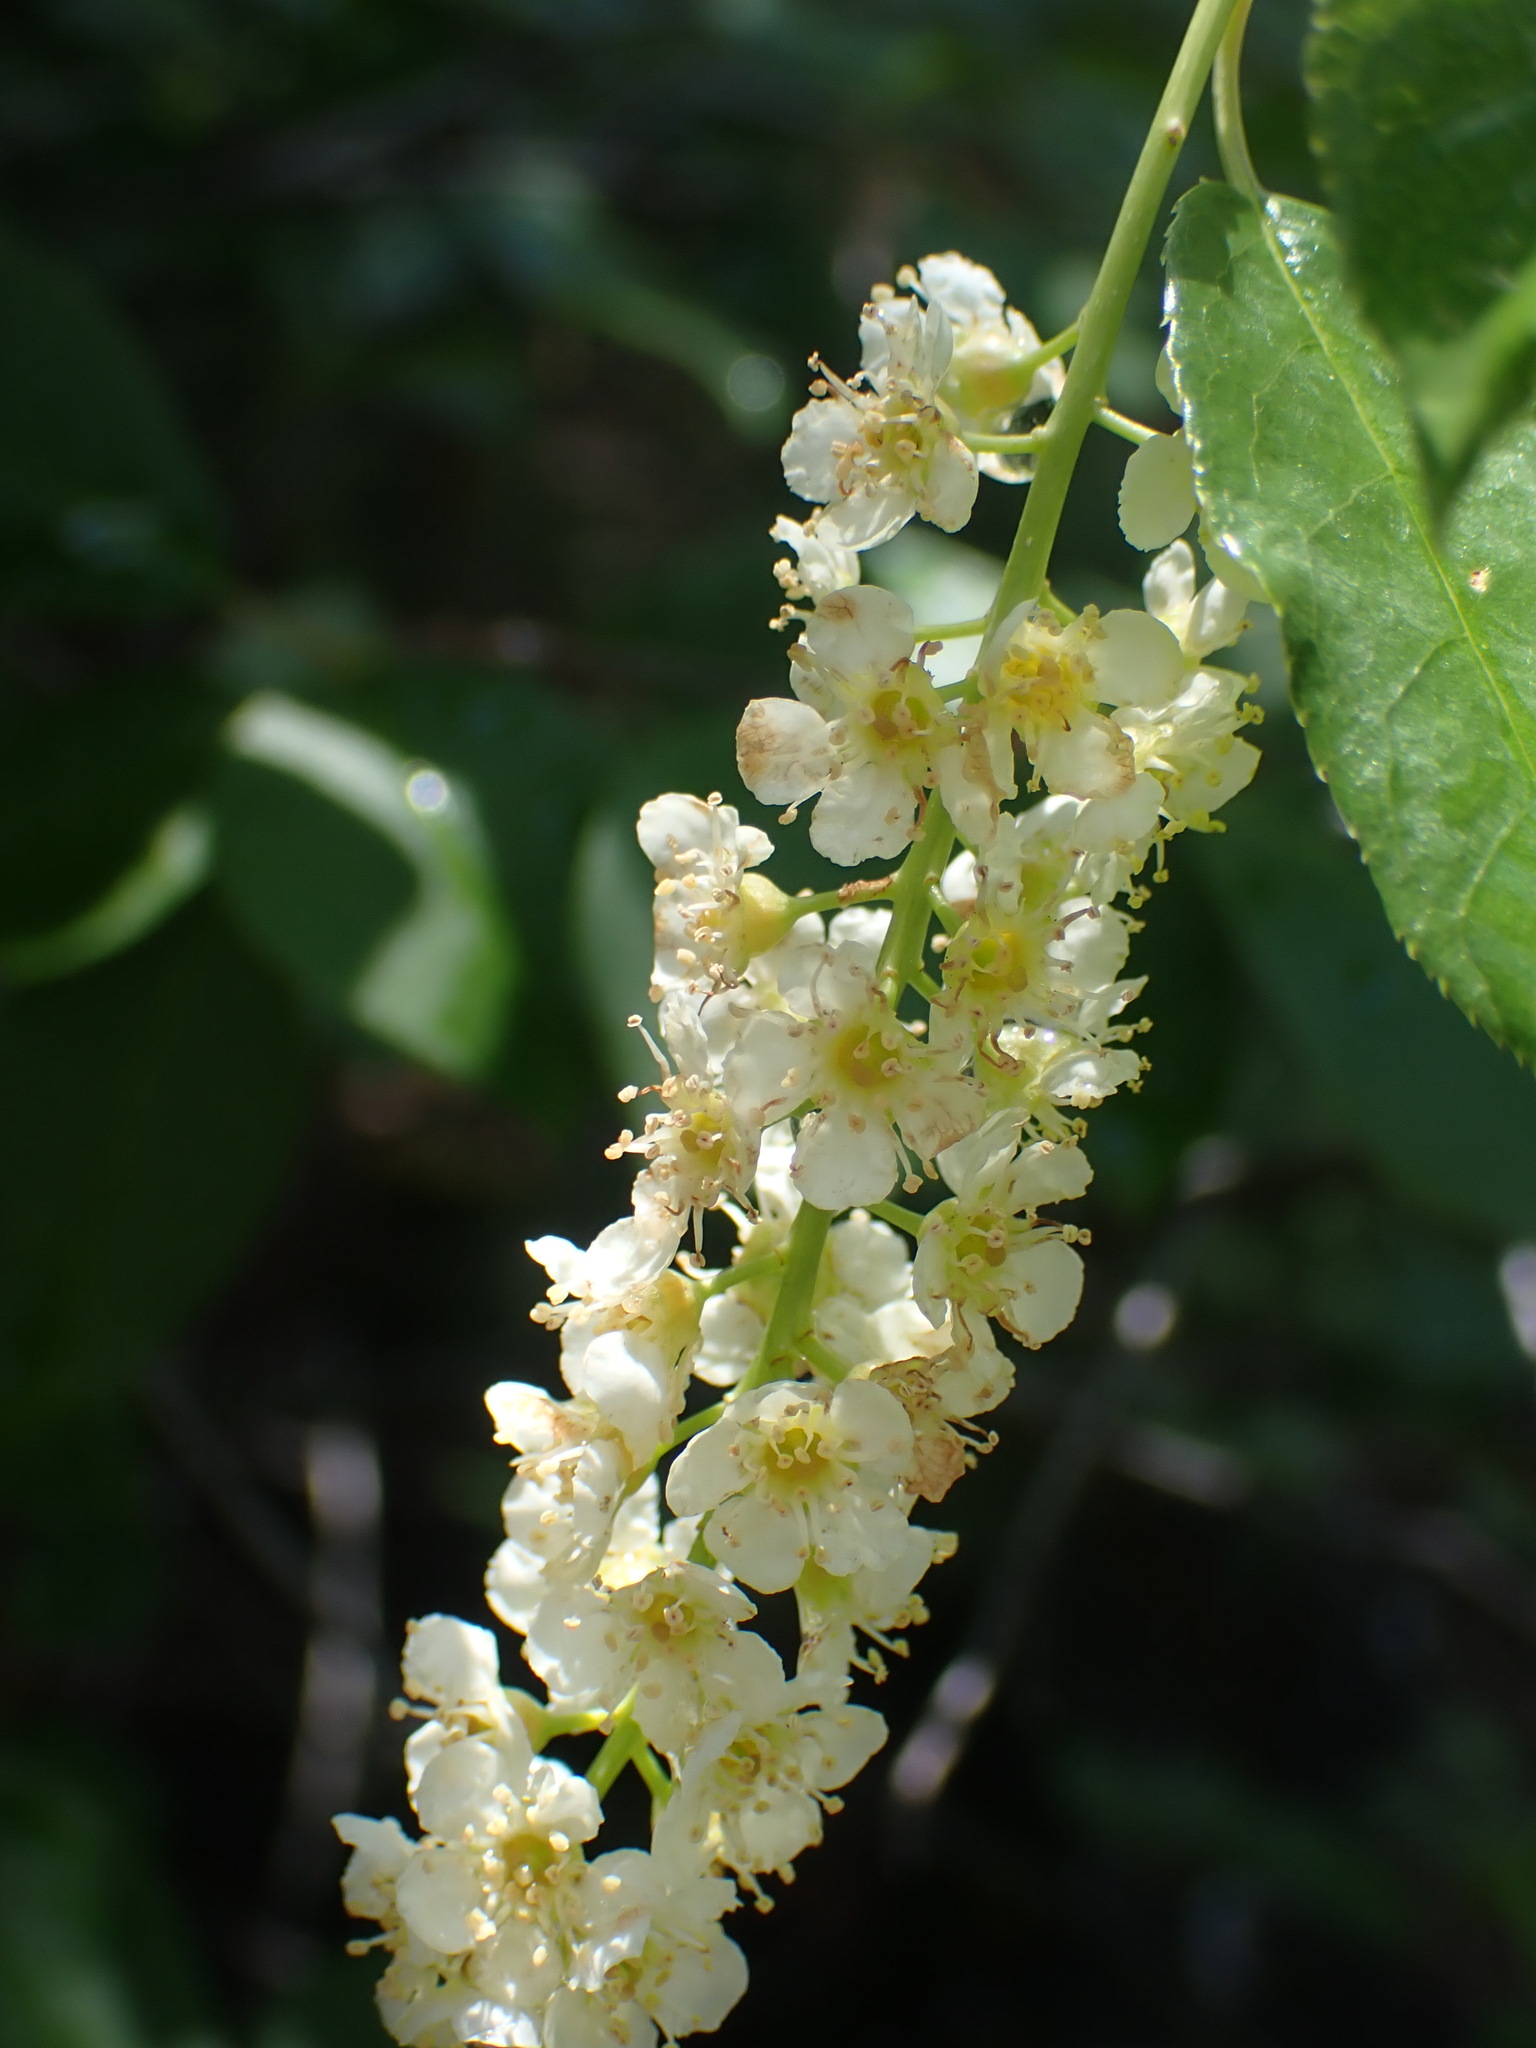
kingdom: Plantae
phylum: Tracheophyta
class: Magnoliopsida
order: Rosales
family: Rosaceae
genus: Prunus
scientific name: Prunus virginiana
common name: Chokecherry
